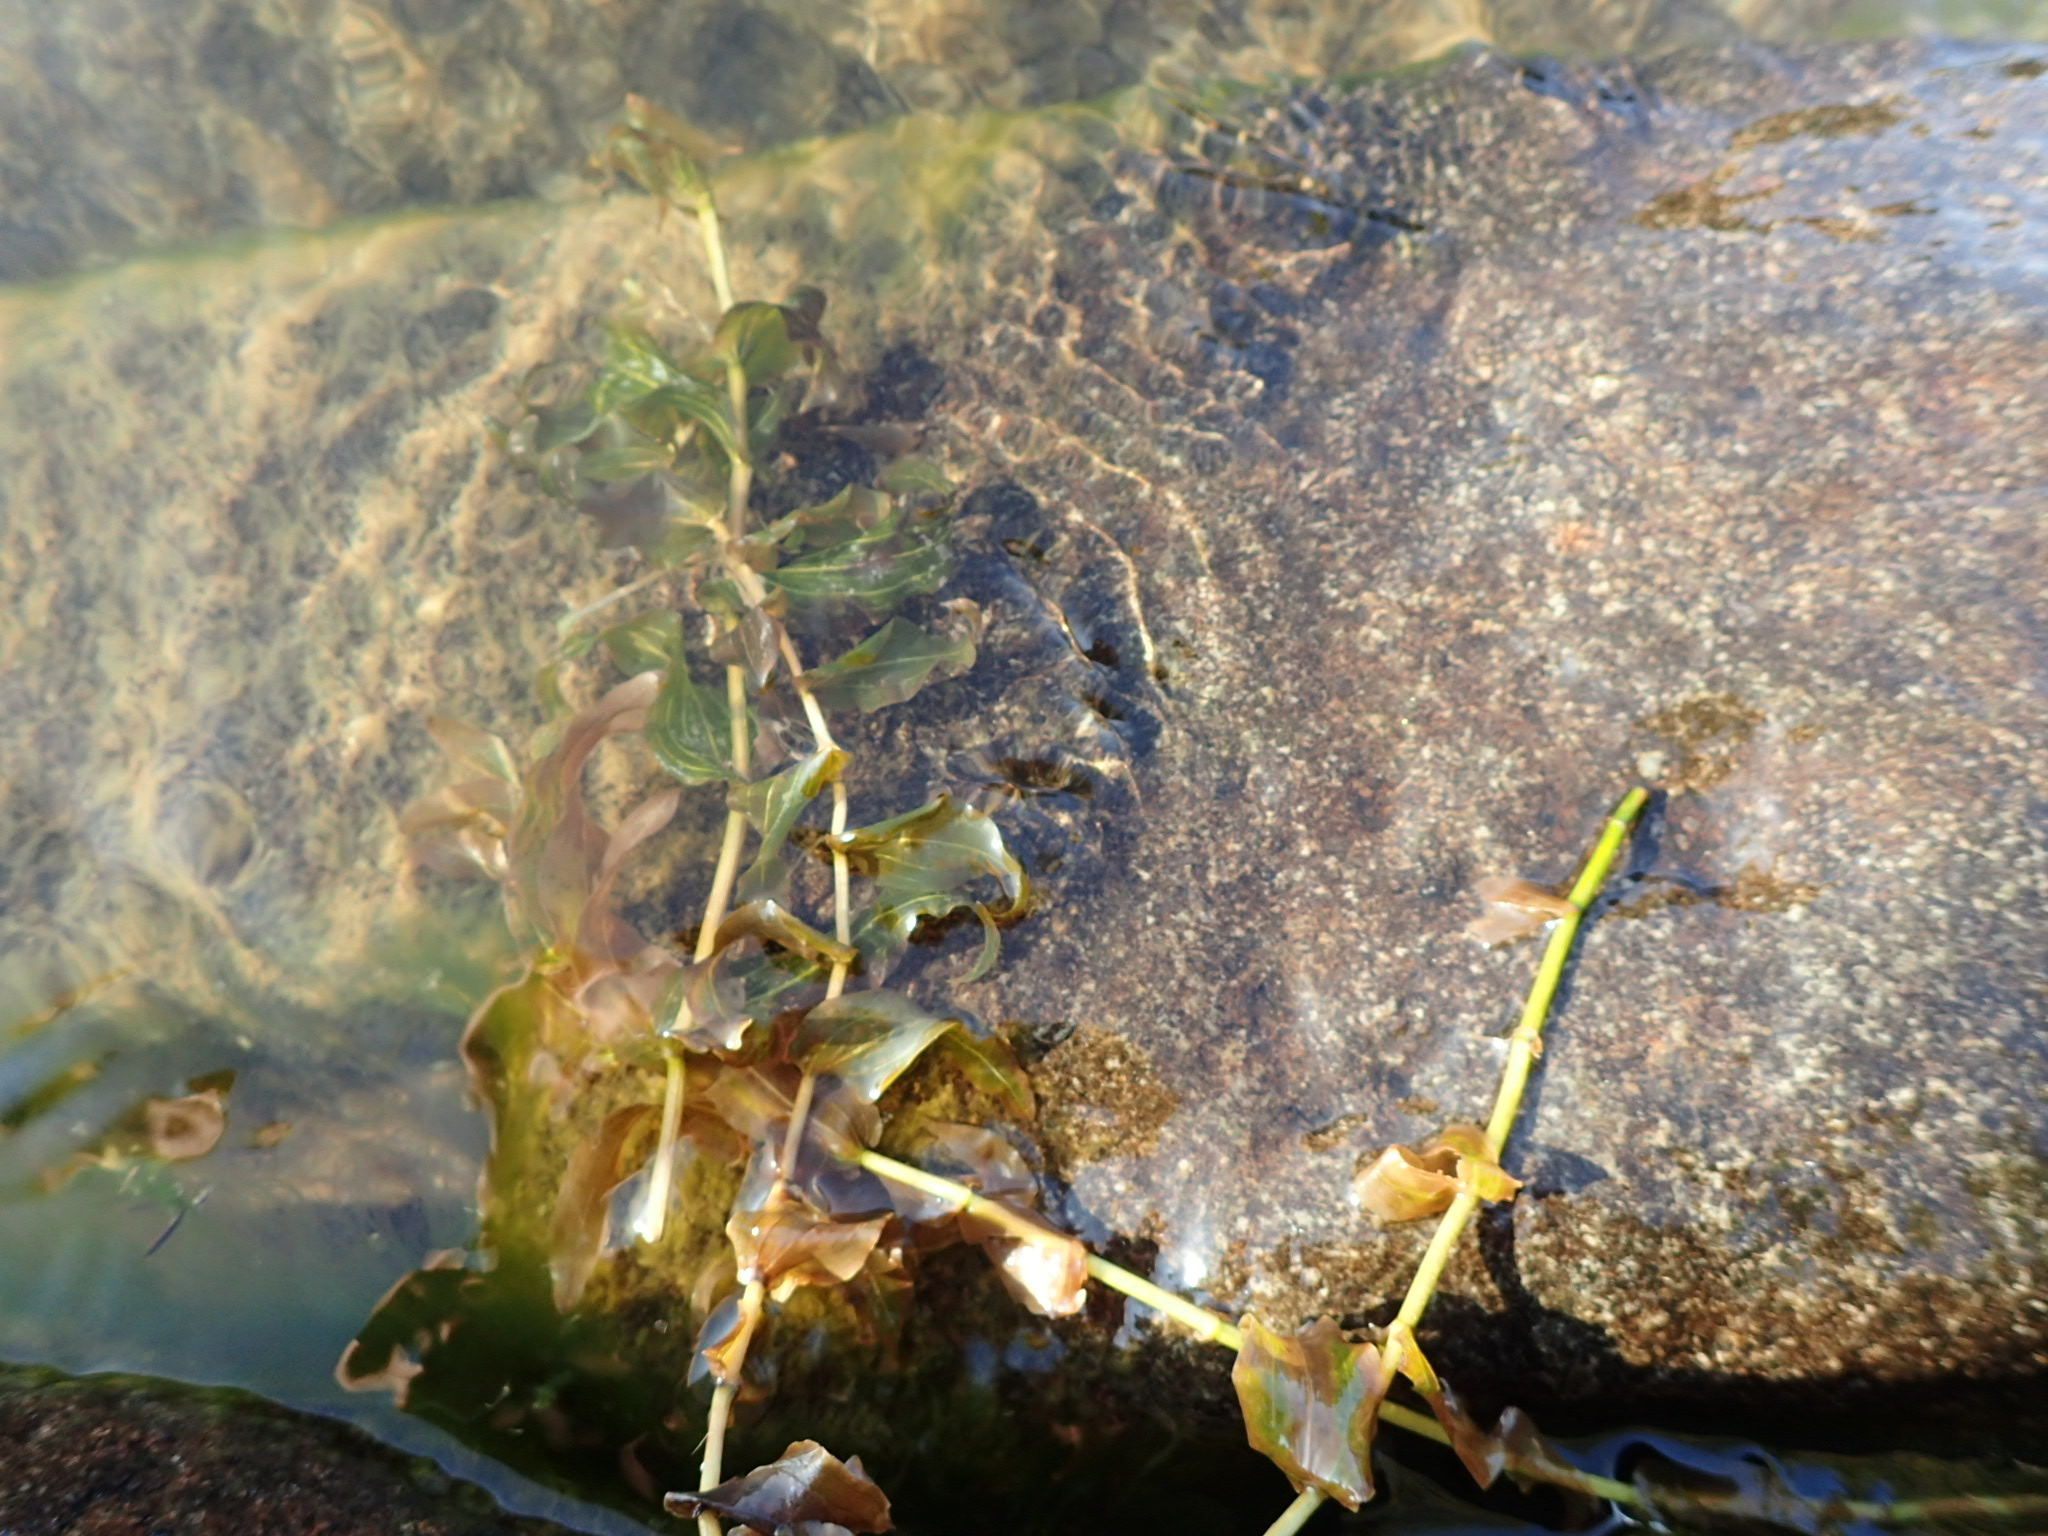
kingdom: Plantae
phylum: Tracheophyta
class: Liliopsida
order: Alismatales
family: Potamogetonaceae
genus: Potamogeton
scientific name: Potamogeton richardsonii
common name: Richardson's pondweed
